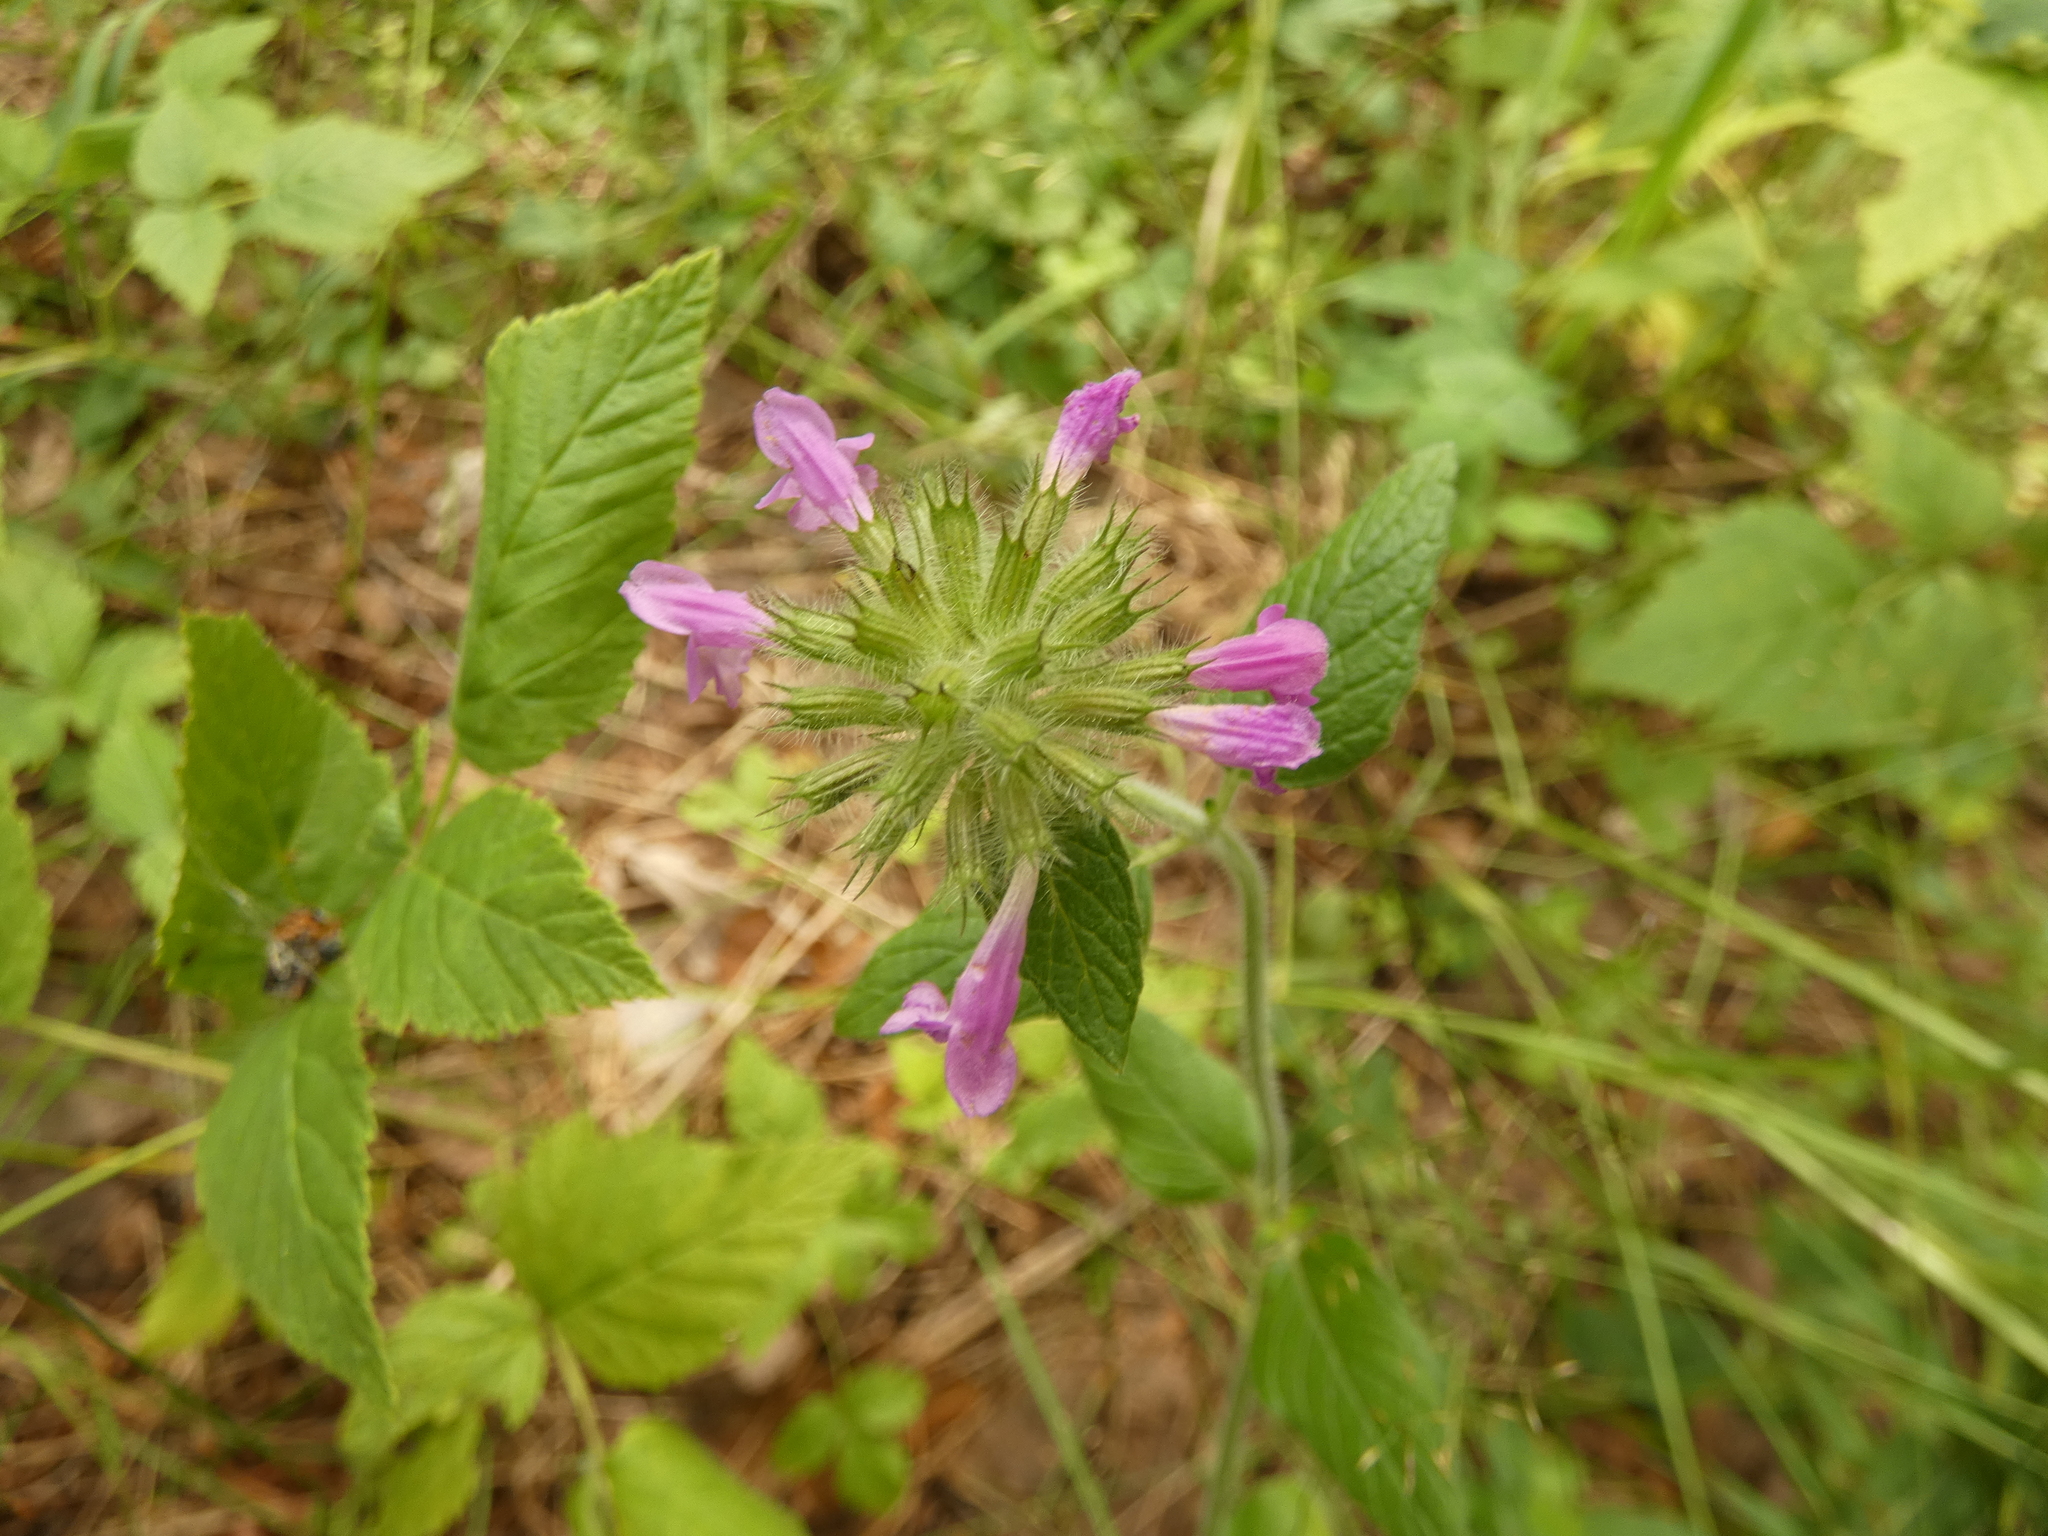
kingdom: Plantae
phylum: Tracheophyta
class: Magnoliopsida
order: Lamiales
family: Lamiaceae
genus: Clinopodium
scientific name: Clinopodium vulgare
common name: Wild basil
